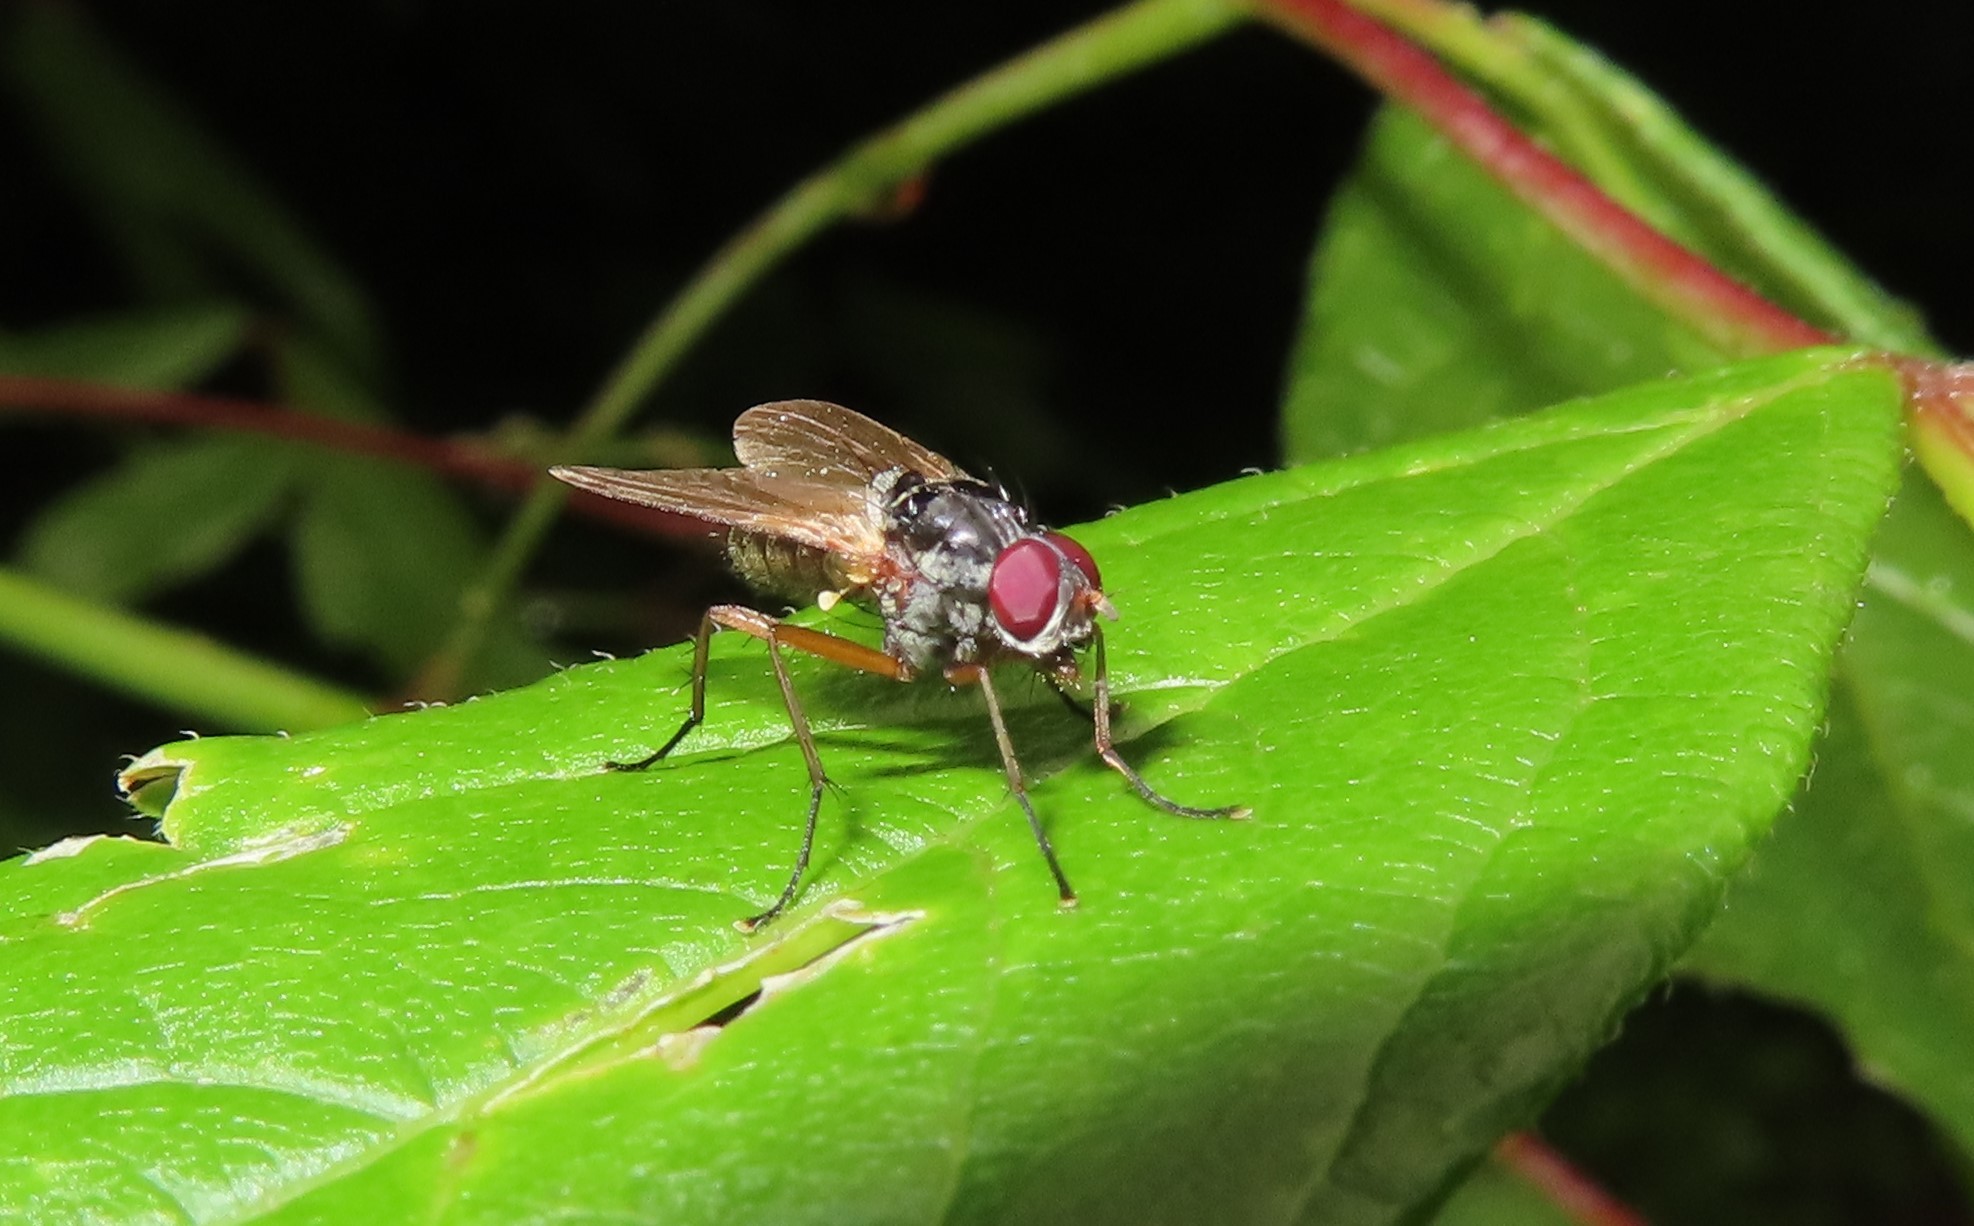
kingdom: Animalia
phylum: Arthropoda
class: Insecta
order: Diptera
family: Anthomyiidae
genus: Eutrichota
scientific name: Eutrichota
